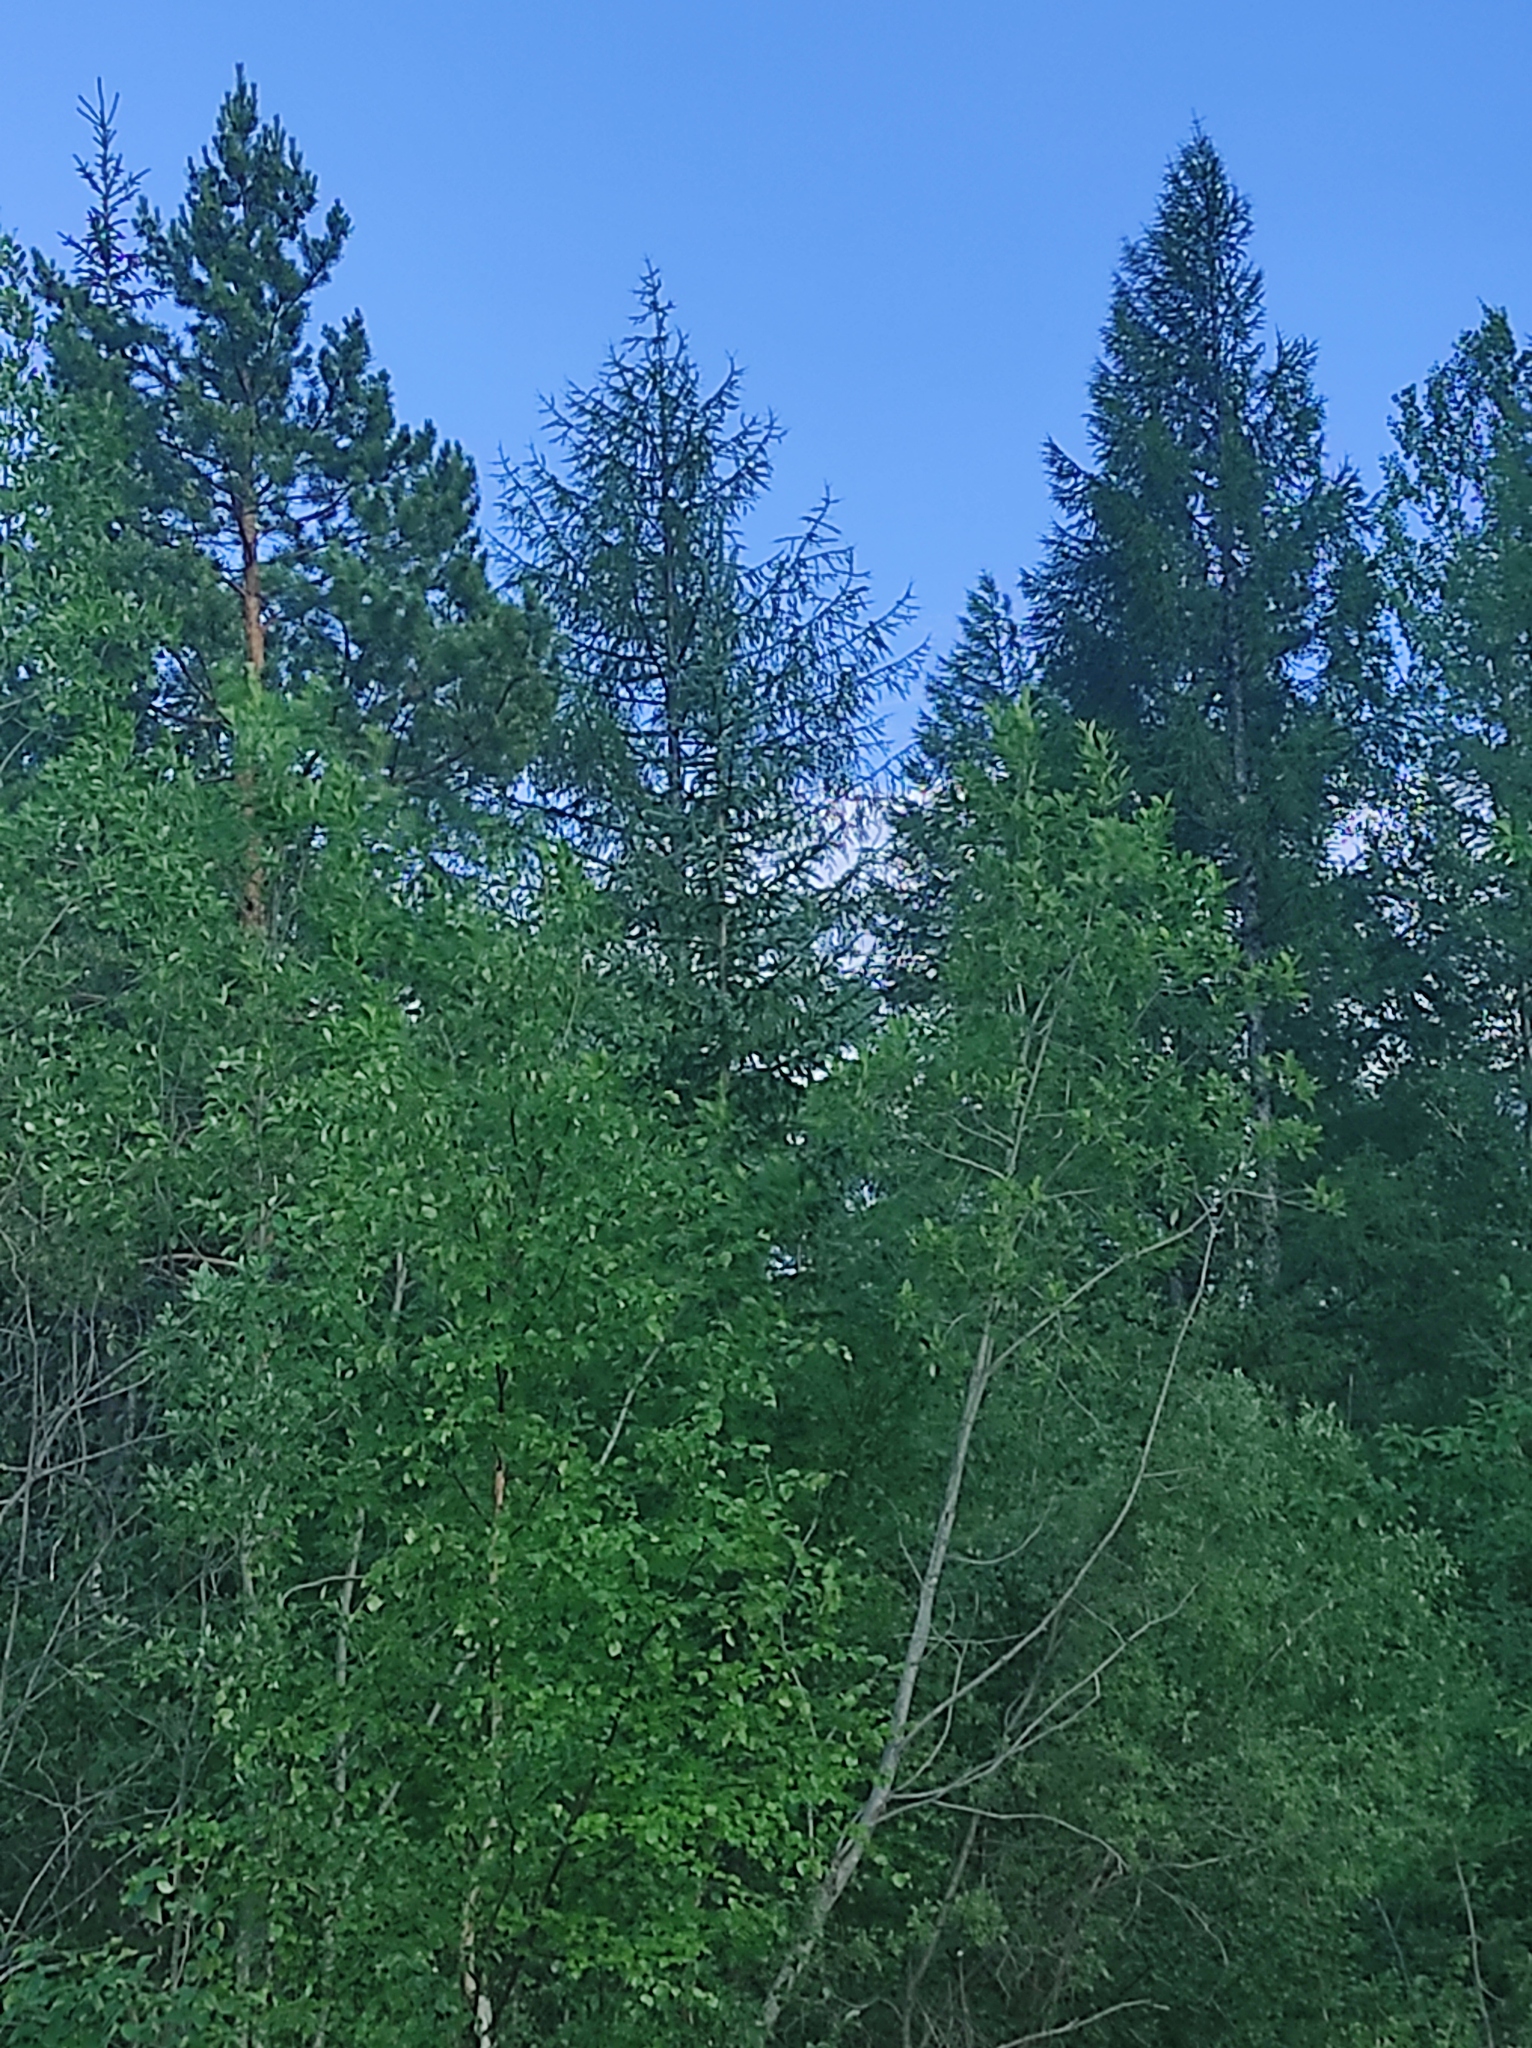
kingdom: Plantae
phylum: Tracheophyta
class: Pinopsida
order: Pinales
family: Pinaceae
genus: Larix
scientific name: Larix gmelinii
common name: Dahurian larch
